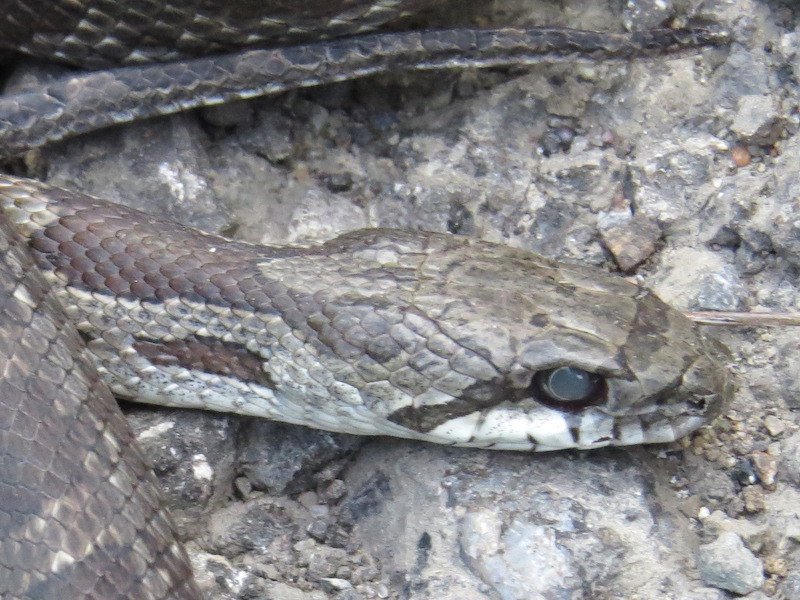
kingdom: Animalia
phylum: Chordata
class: Squamata
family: Colubridae
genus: Pantherophis
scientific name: Pantherophis spiloides
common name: Gray rat snake
